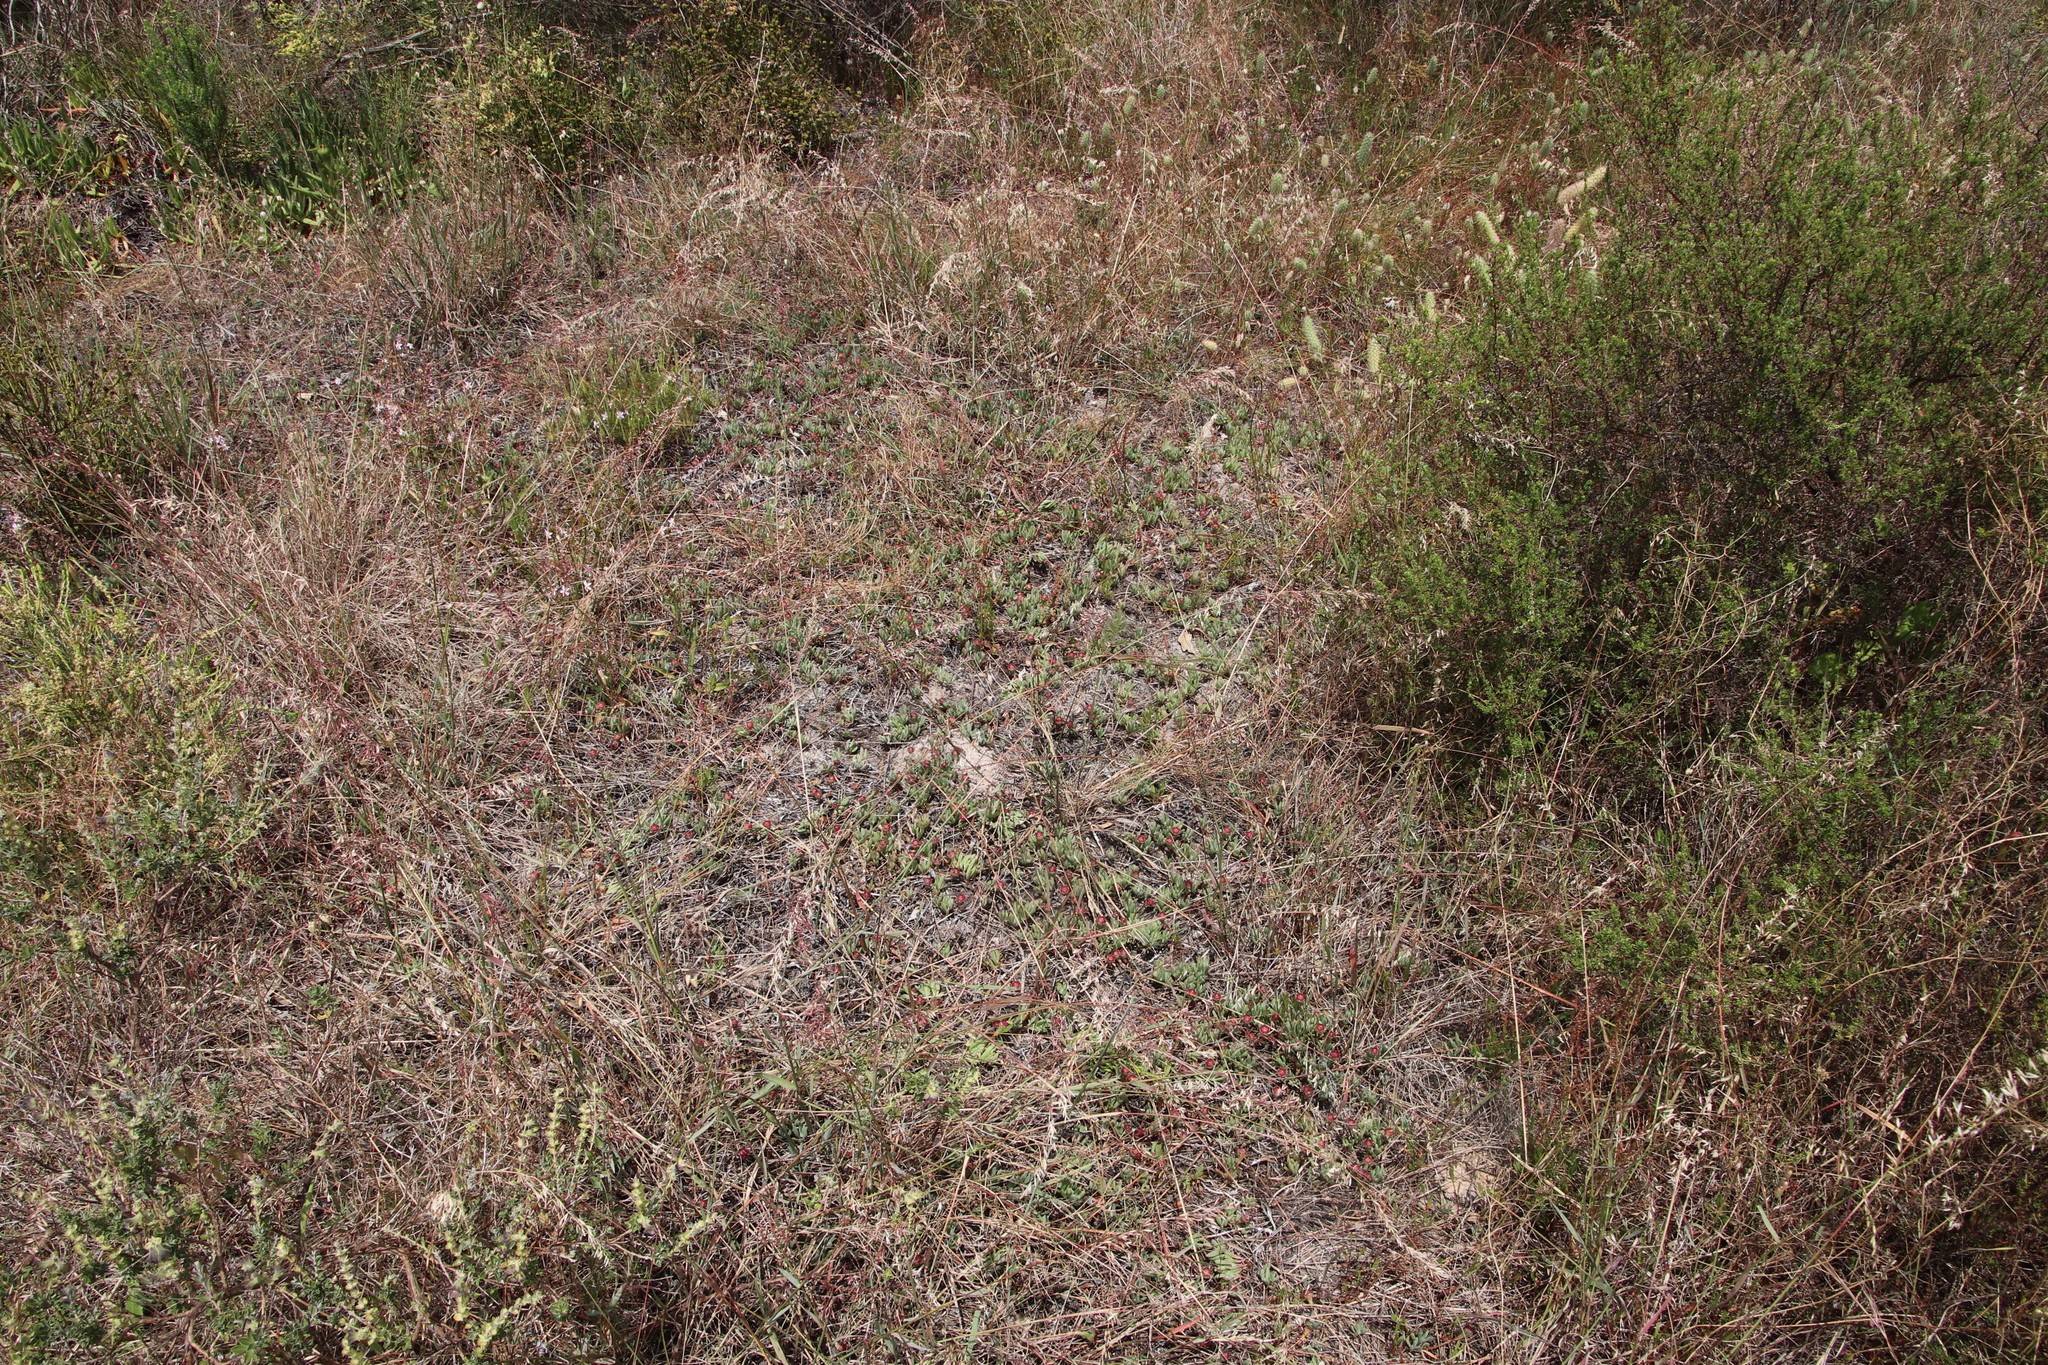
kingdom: Plantae
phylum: Tracheophyta
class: Magnoliopsida
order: Caryophyllales
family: Aizoaceae
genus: Lampranthus
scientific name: Lampranthus reptans
